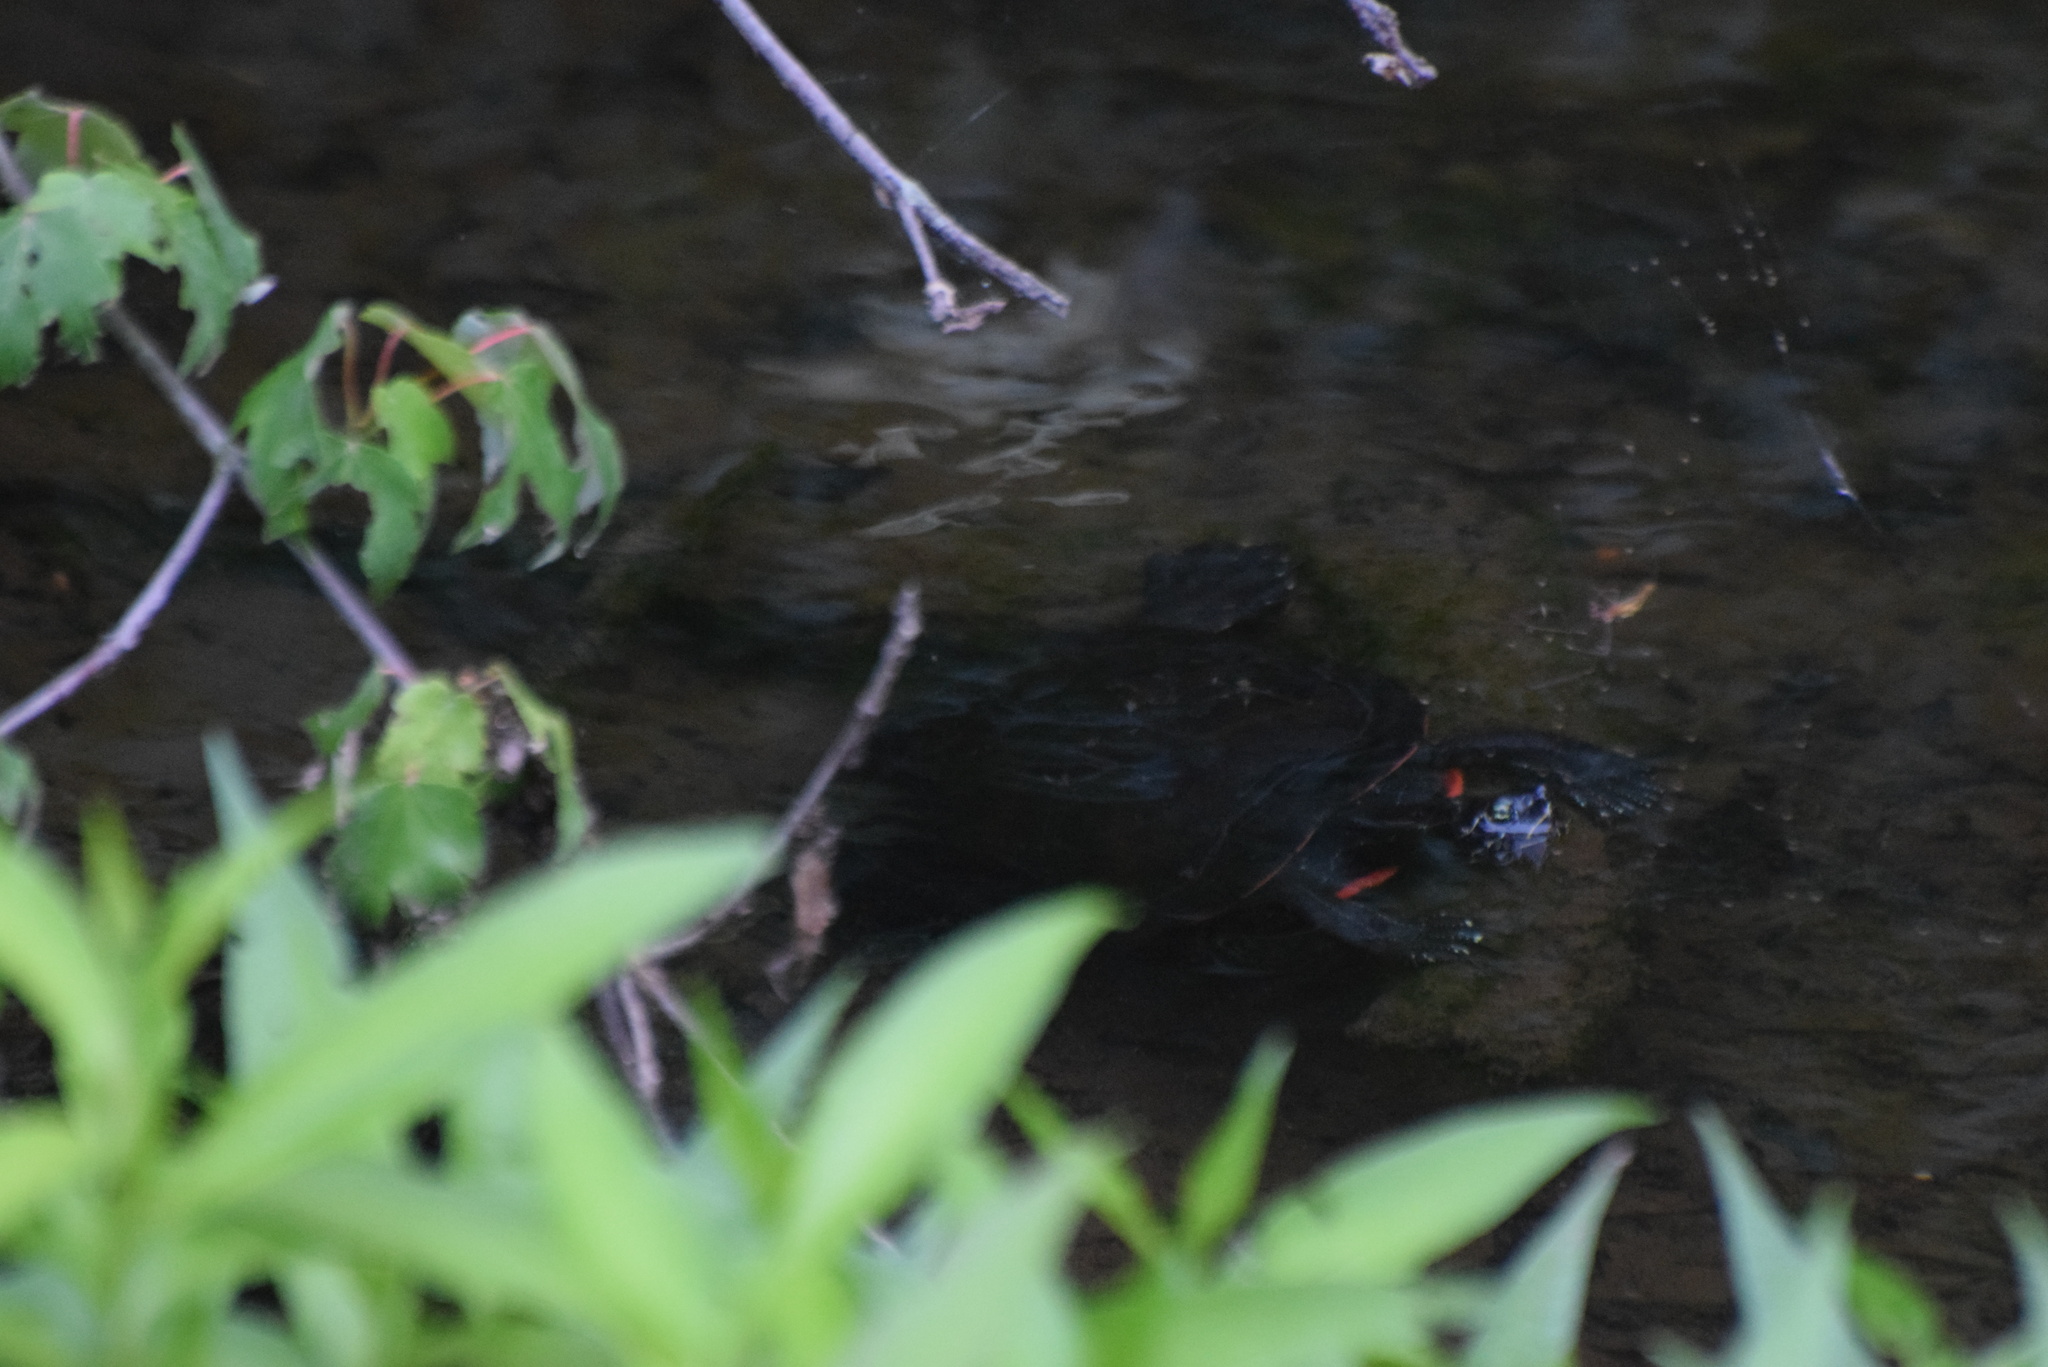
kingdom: Animalia
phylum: Chordata
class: Testudines
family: Emydidae
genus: Pseudemys
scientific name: Pseudemys rubriventris
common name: American red-bellied turtle
